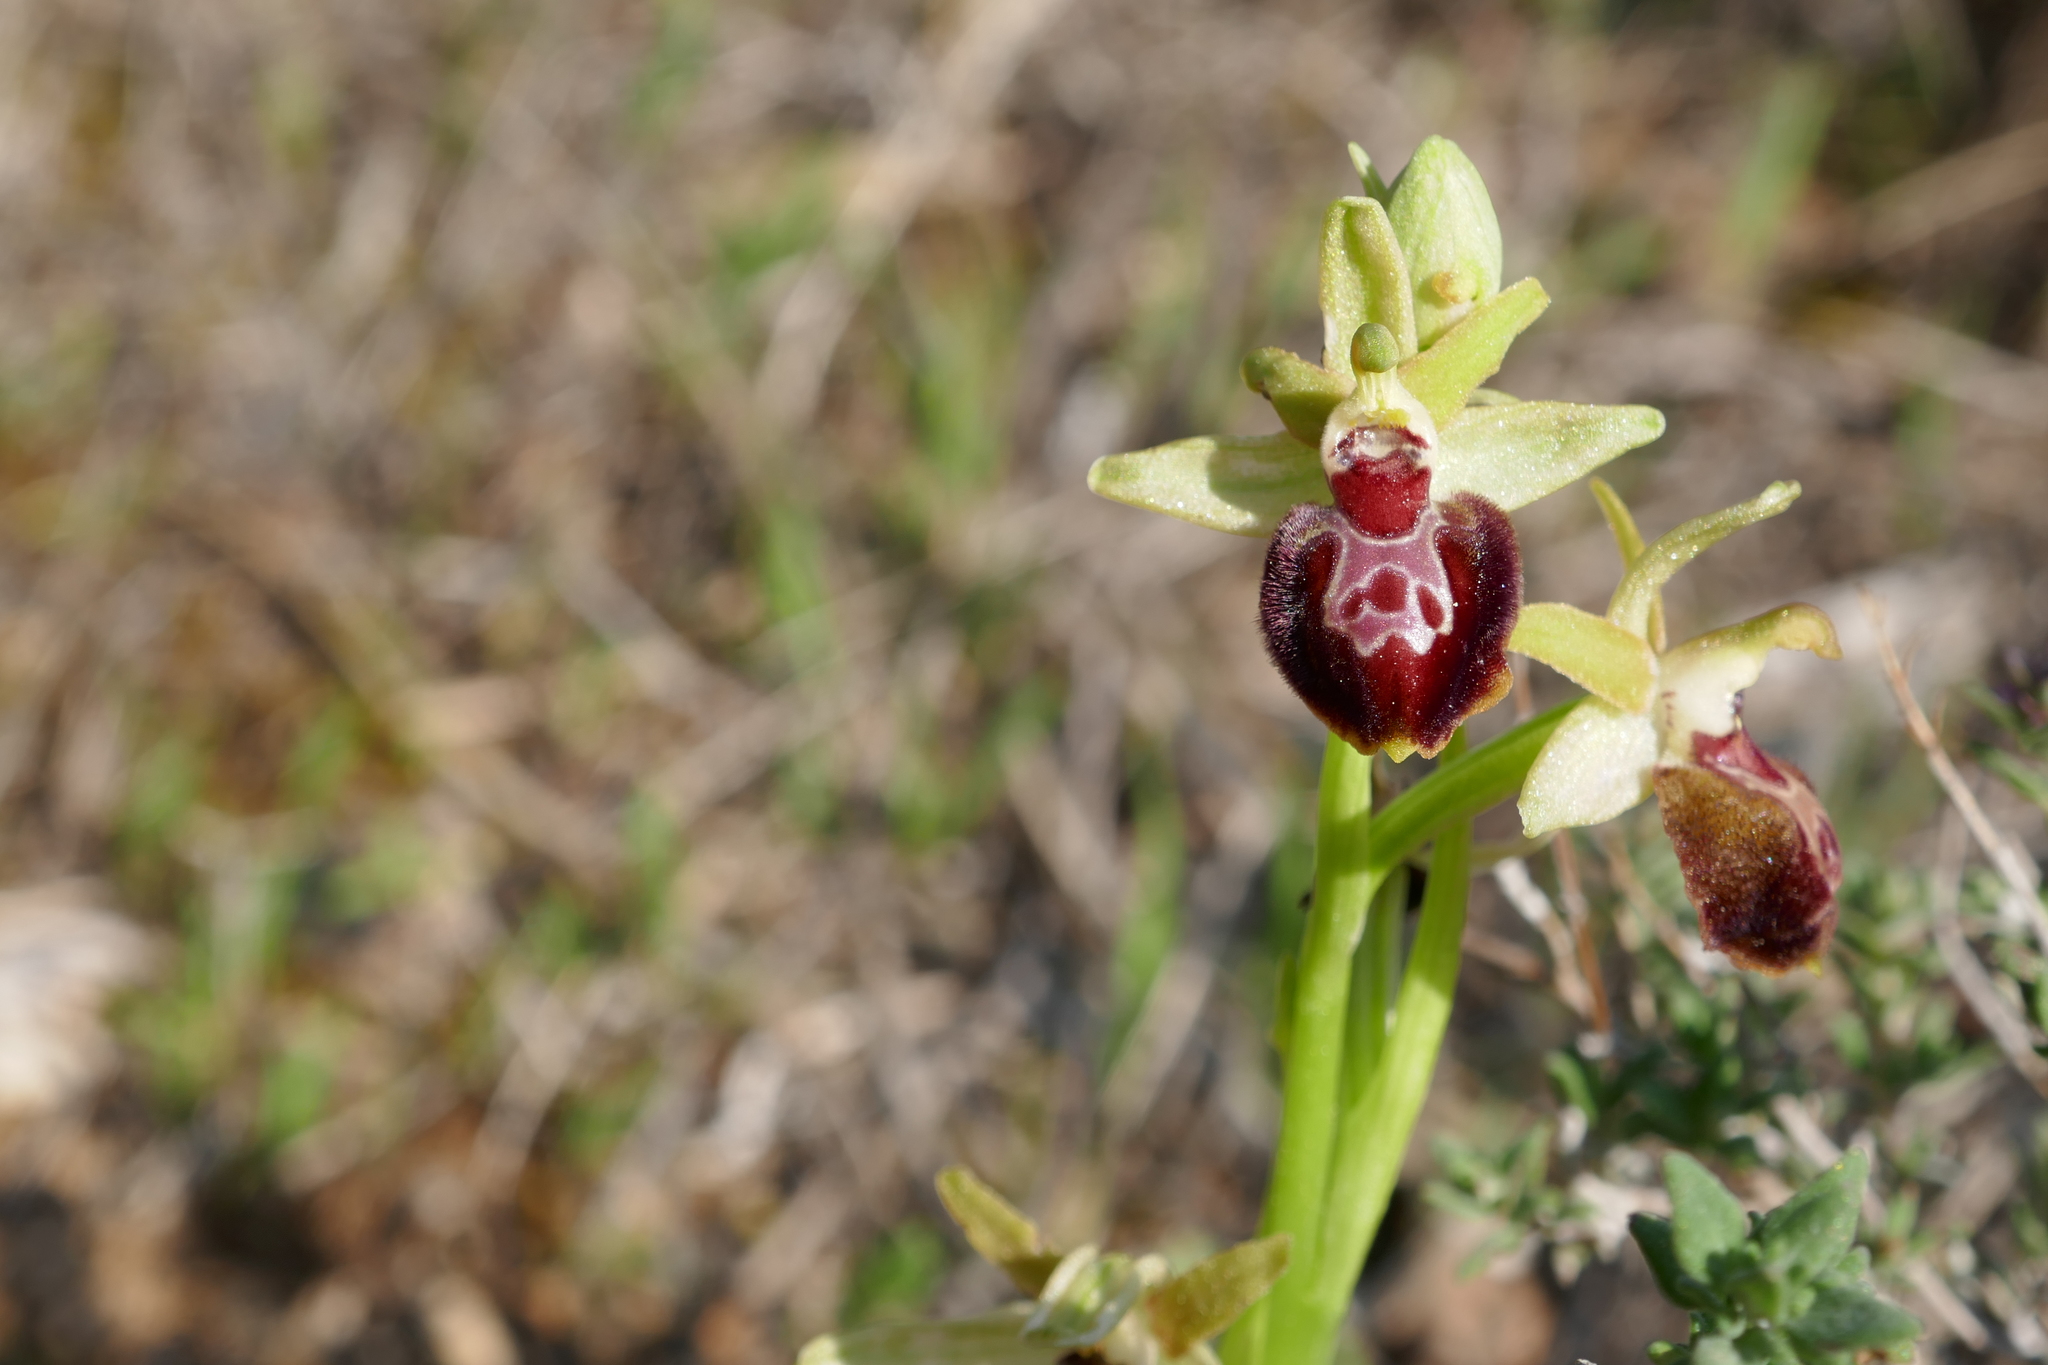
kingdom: Plantae
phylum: Tracheophyta
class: Liliopsida
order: Asparagales
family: Orchidaceae
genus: Ophrys
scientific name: Ophrys sphegodes
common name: Early spider-orchid
